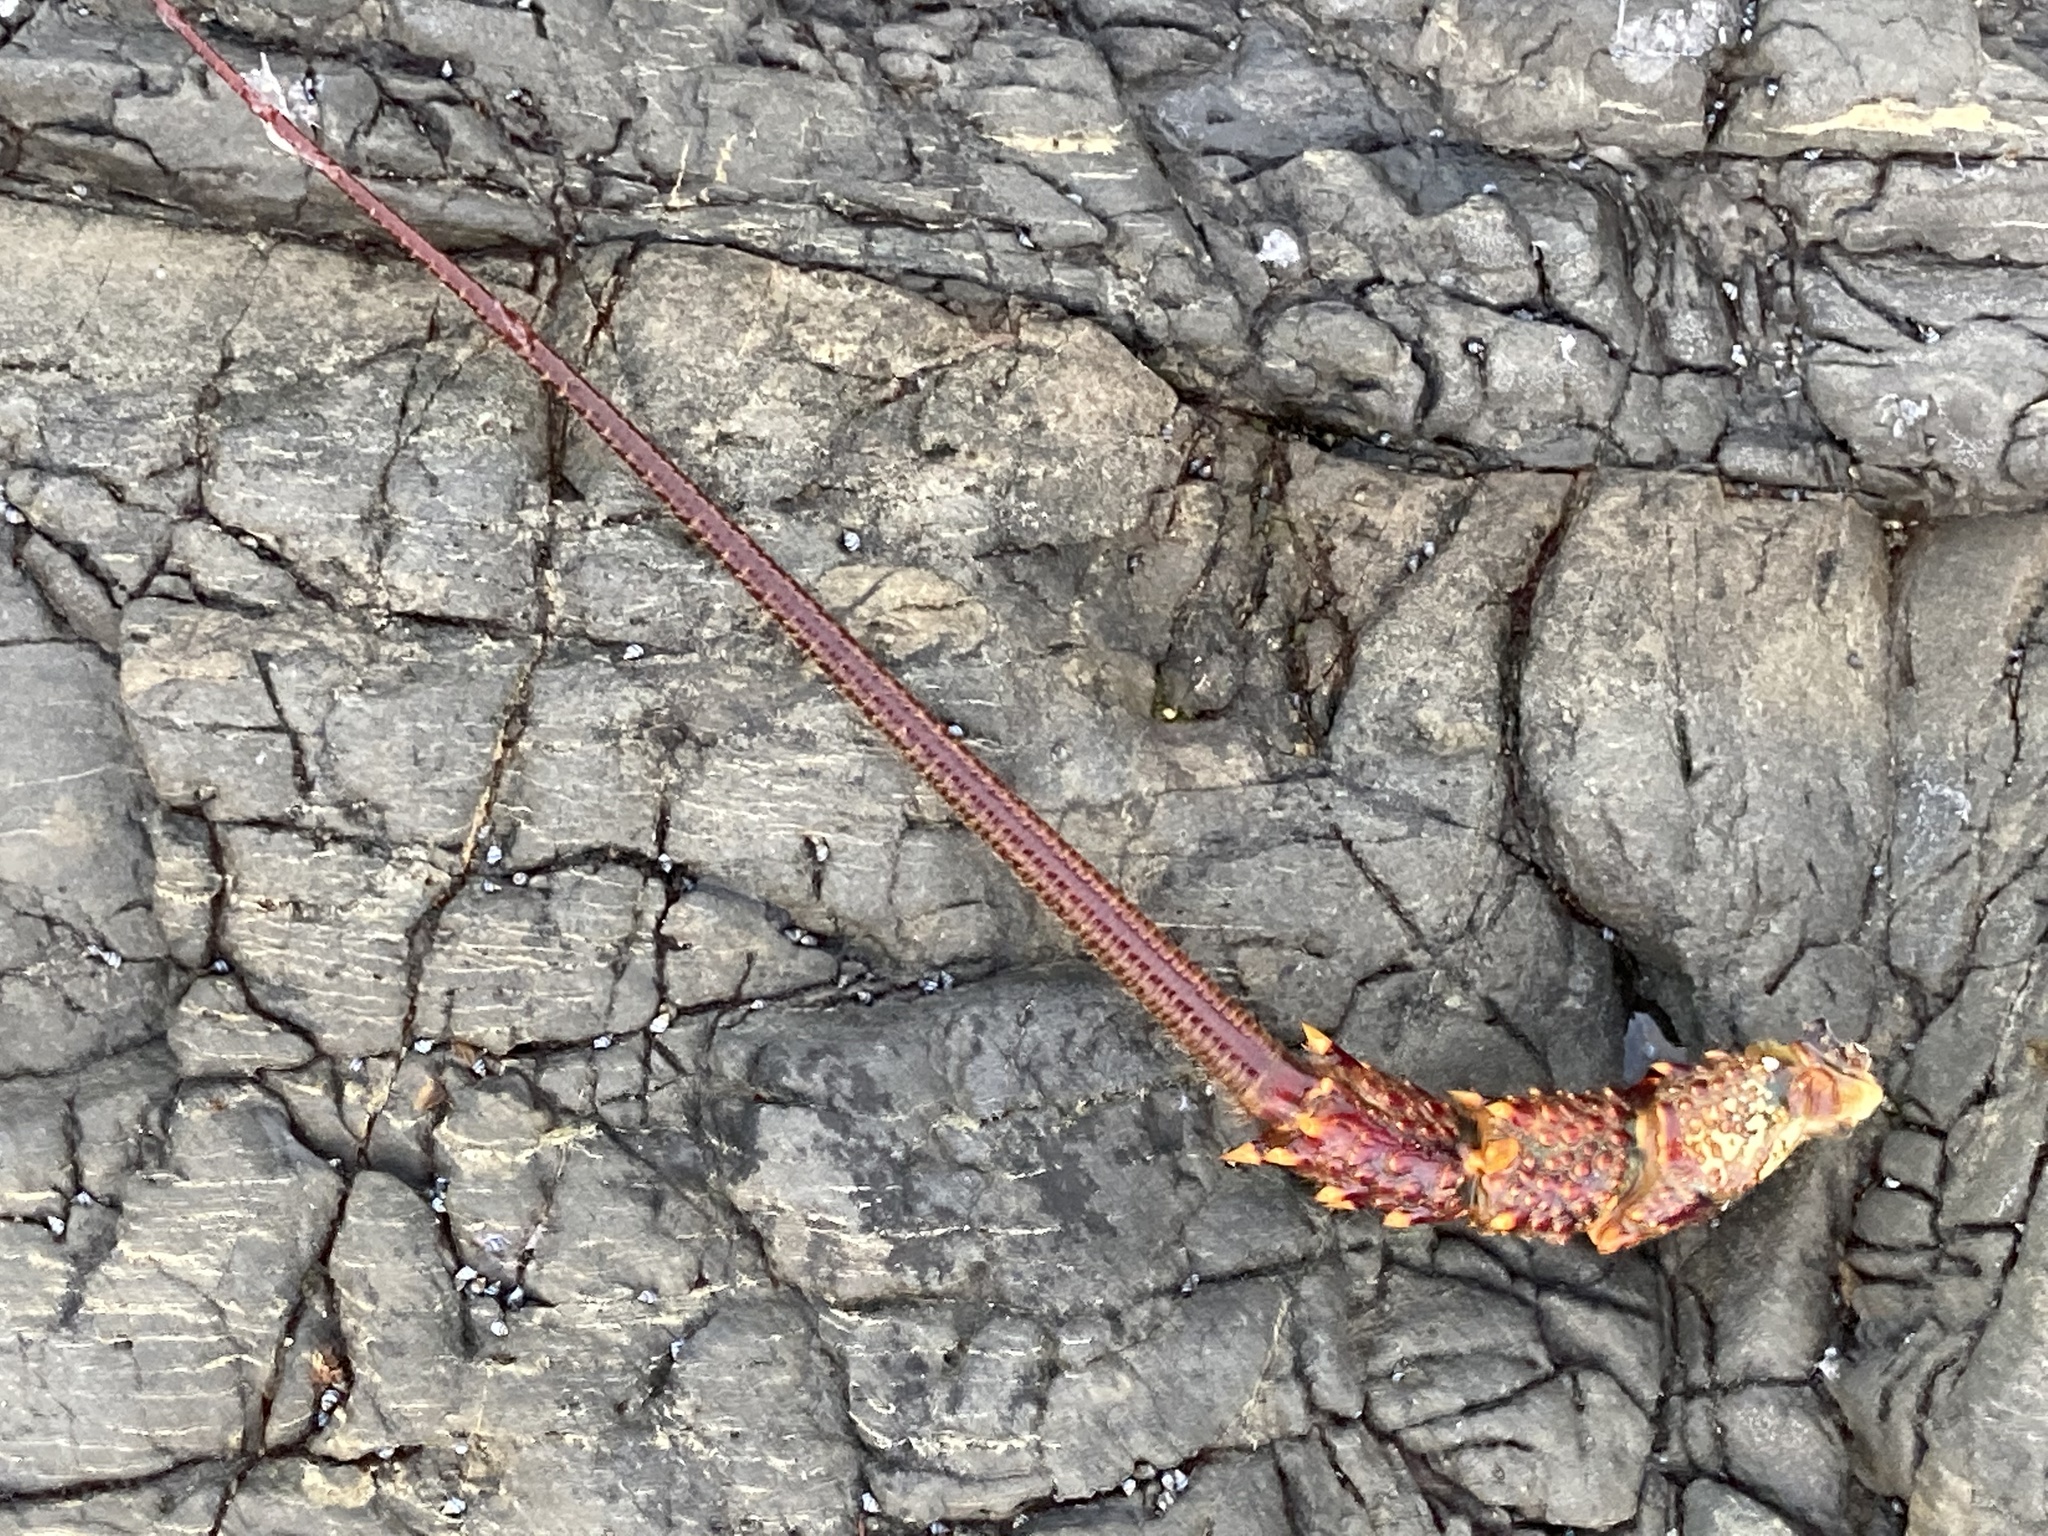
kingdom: Animalia
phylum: Arthropoda
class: Malacostraca
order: Decapoda
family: Palinuridae
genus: Jasus
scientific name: Jasus edwardsii
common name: Red rock lobster
